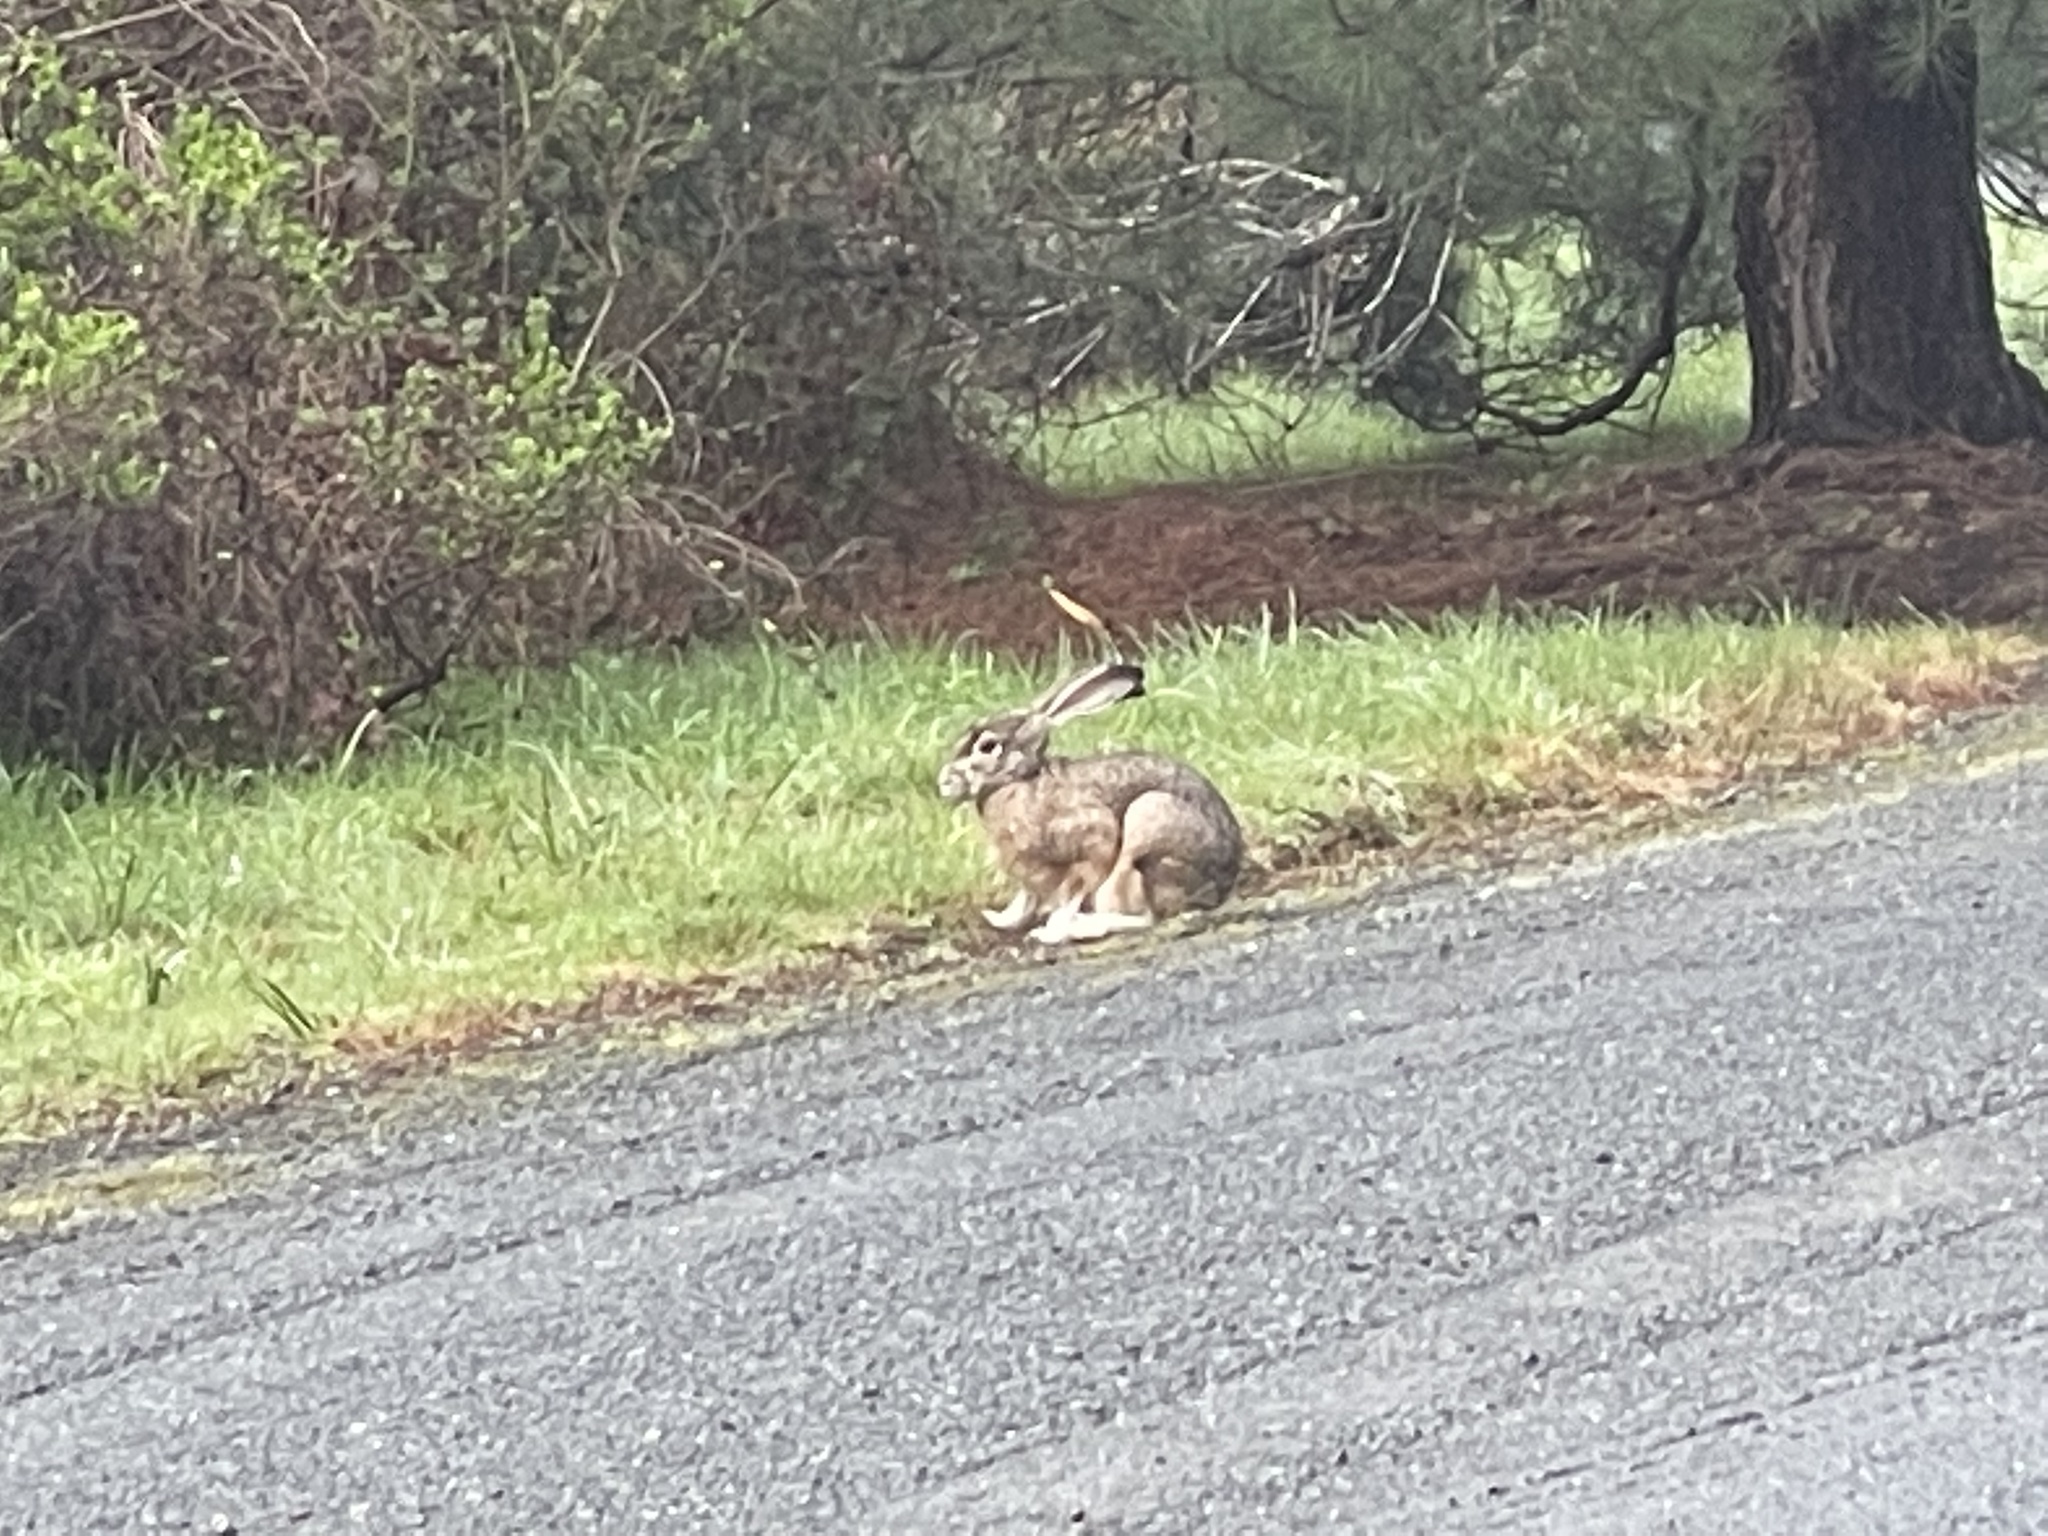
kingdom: Animalia
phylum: Chordata
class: Mammalia
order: Lagomorpha
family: Leporidae
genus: Lepus
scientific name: Lepus californicus
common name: Black-tailed jackrabbit
